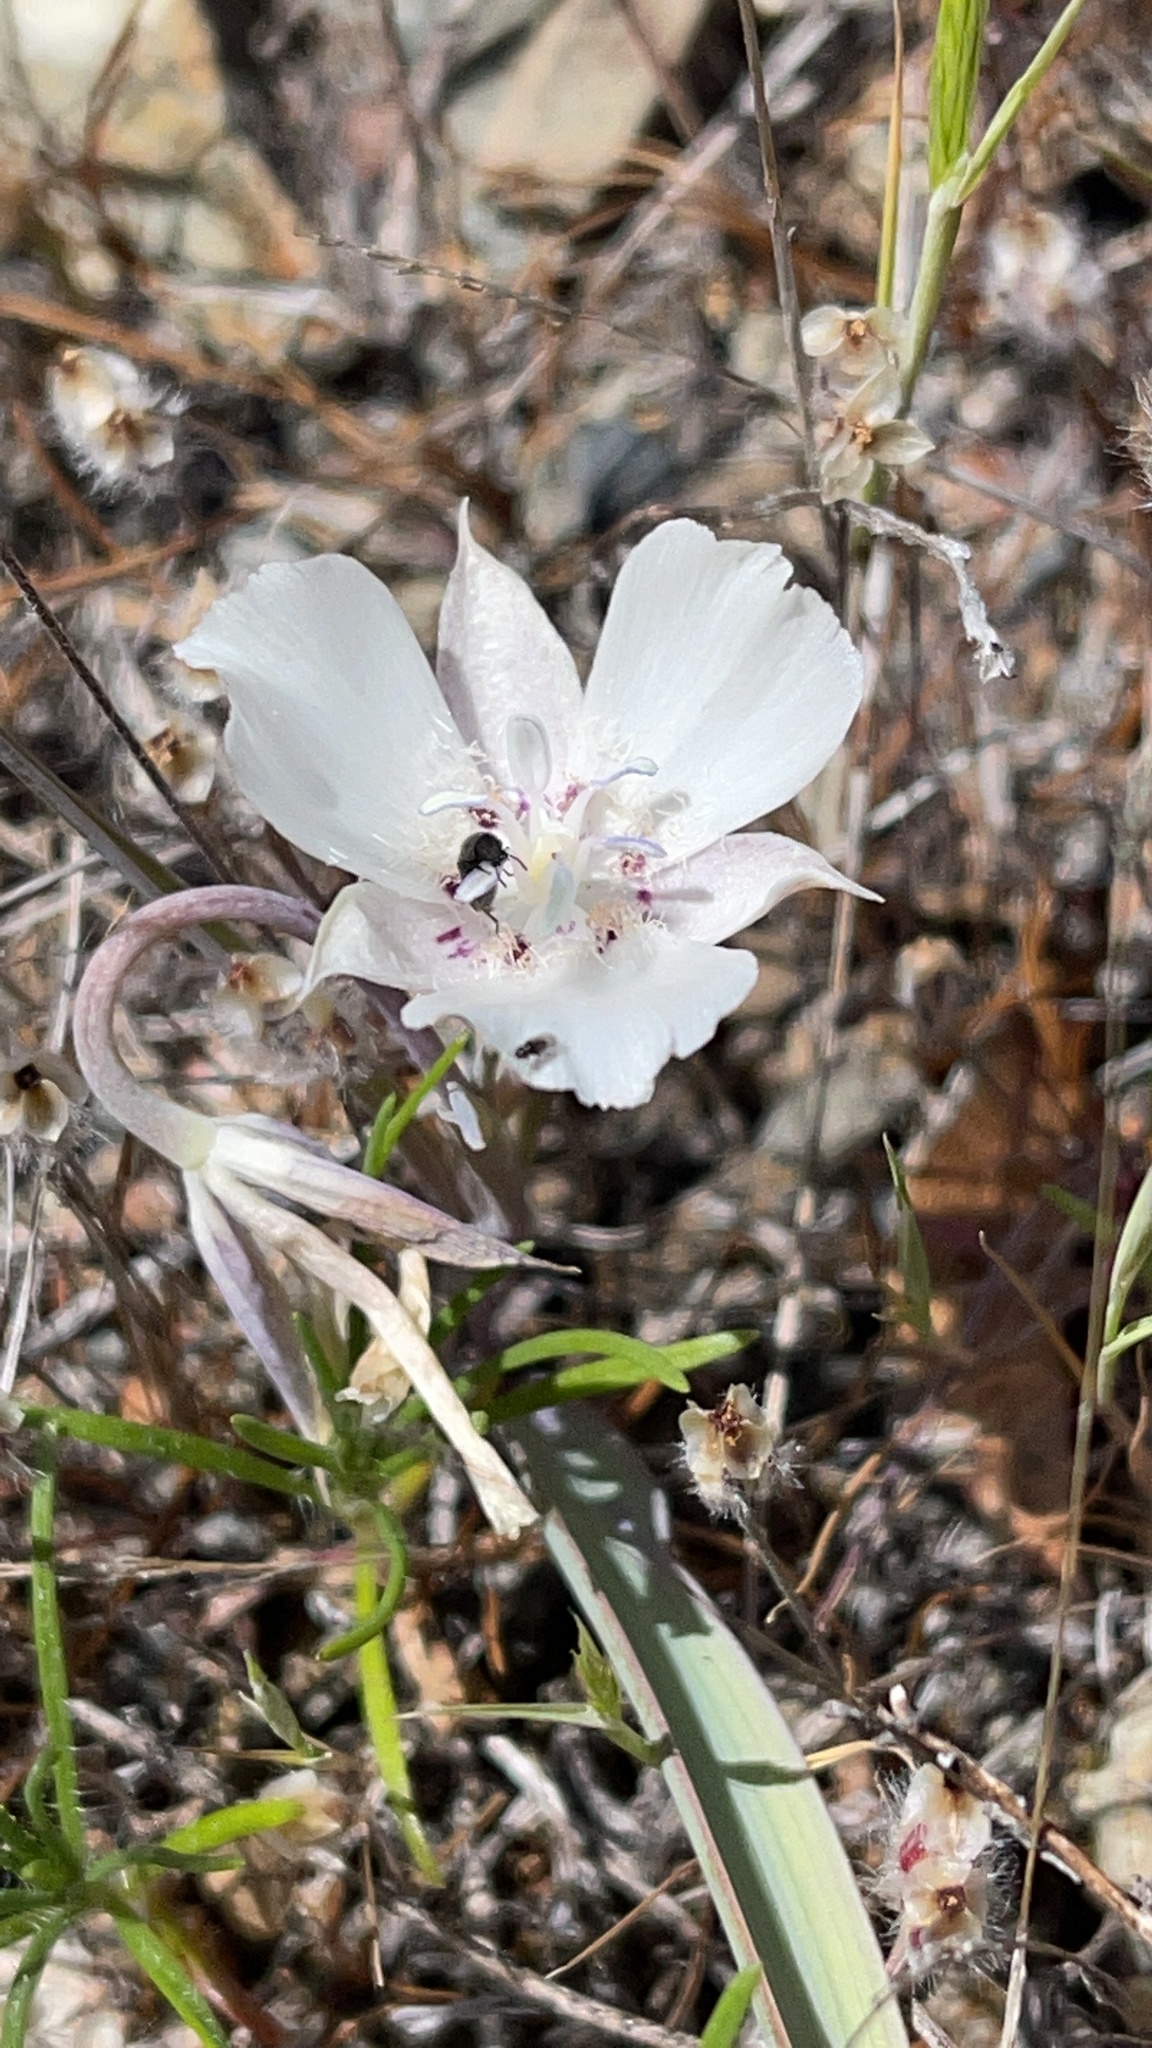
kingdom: Plantae
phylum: Tracheophyta
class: Liliopsida
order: Liliales
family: Liliaceae
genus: Calochortus
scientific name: Calochortus umbellatus
